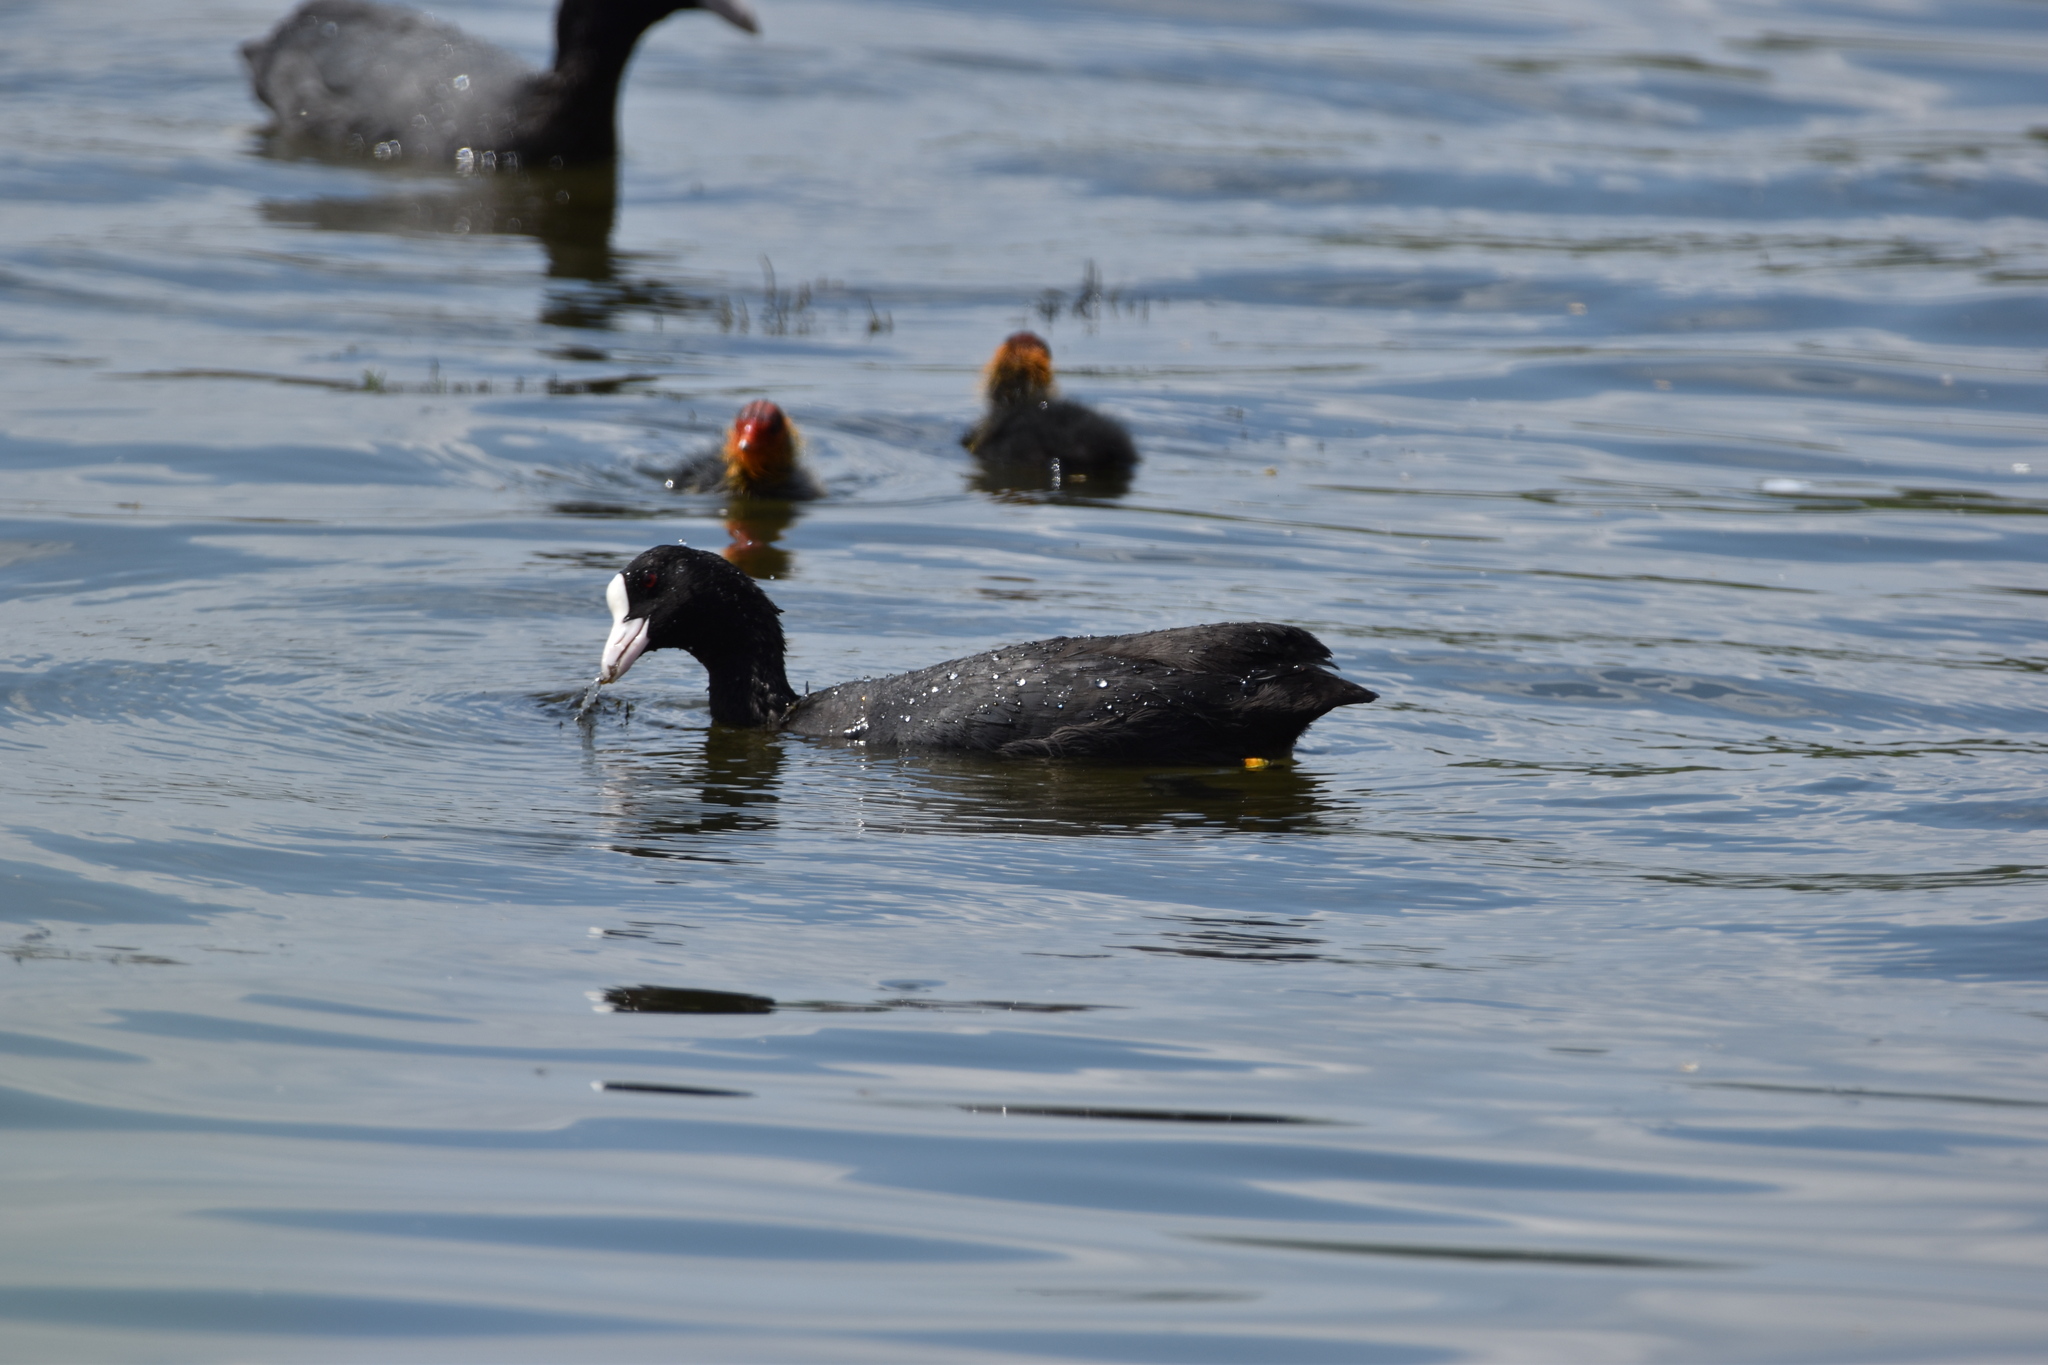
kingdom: Animalia
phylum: Chordata
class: Aves
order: Gruiformes
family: Rallidae
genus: Fulica
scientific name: Fulica atra
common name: Eurasian coot
